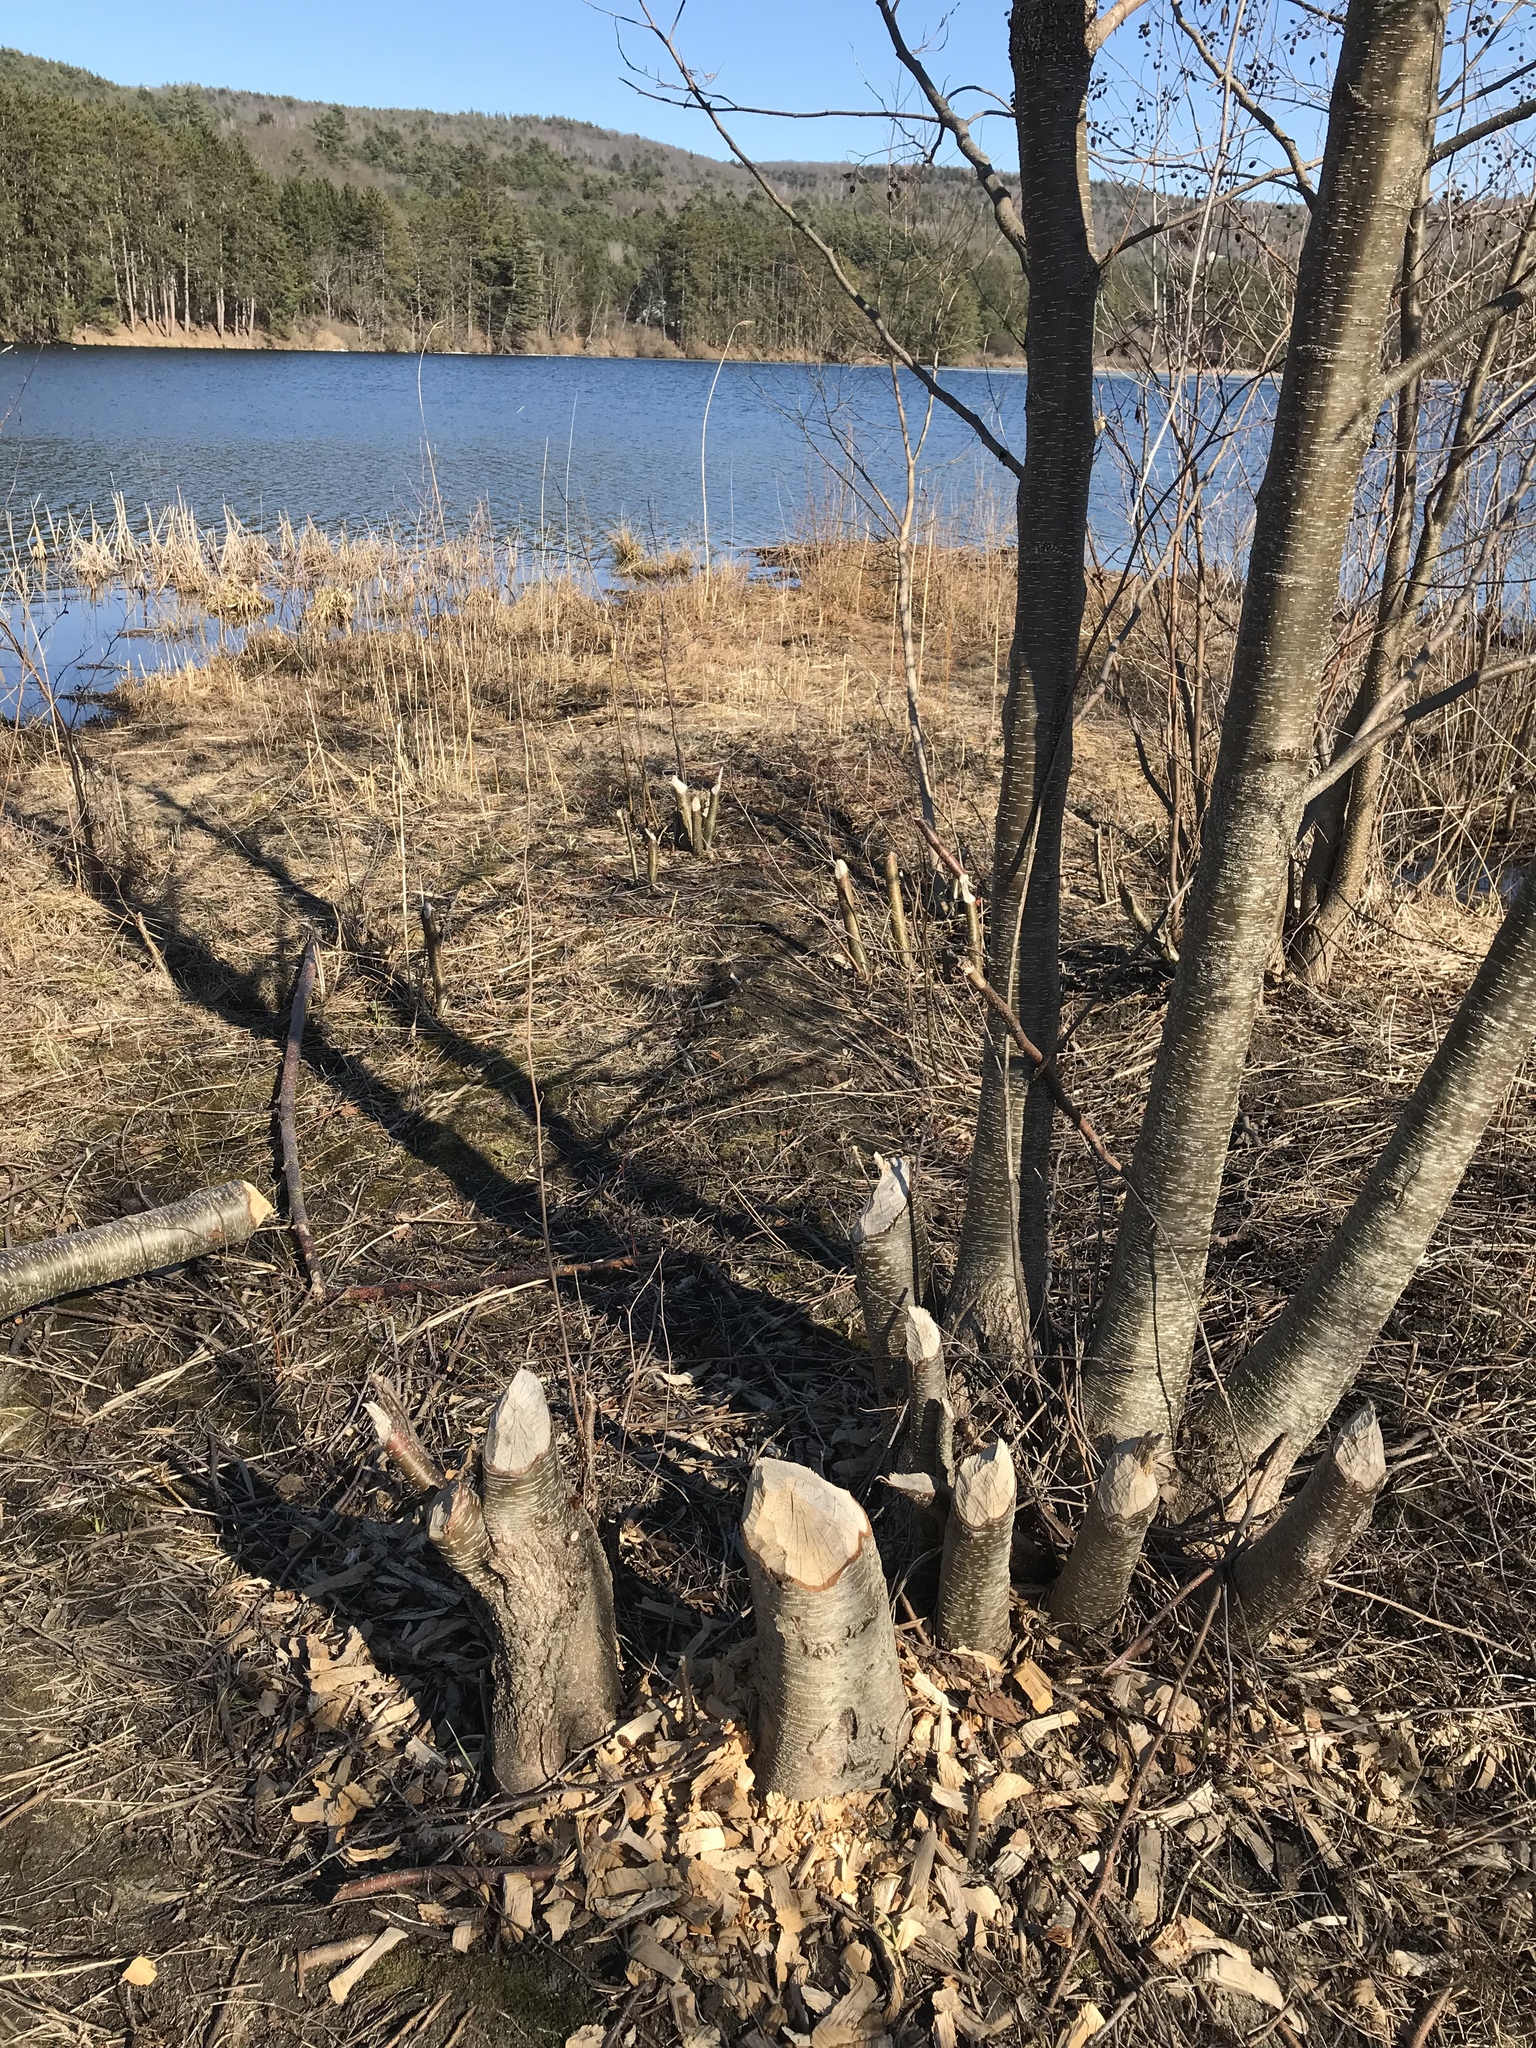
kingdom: Animalia
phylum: Chordata
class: Mammalia
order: Rodentia
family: Castoridae
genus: Castor
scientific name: Castor canadensis
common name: American beaver
